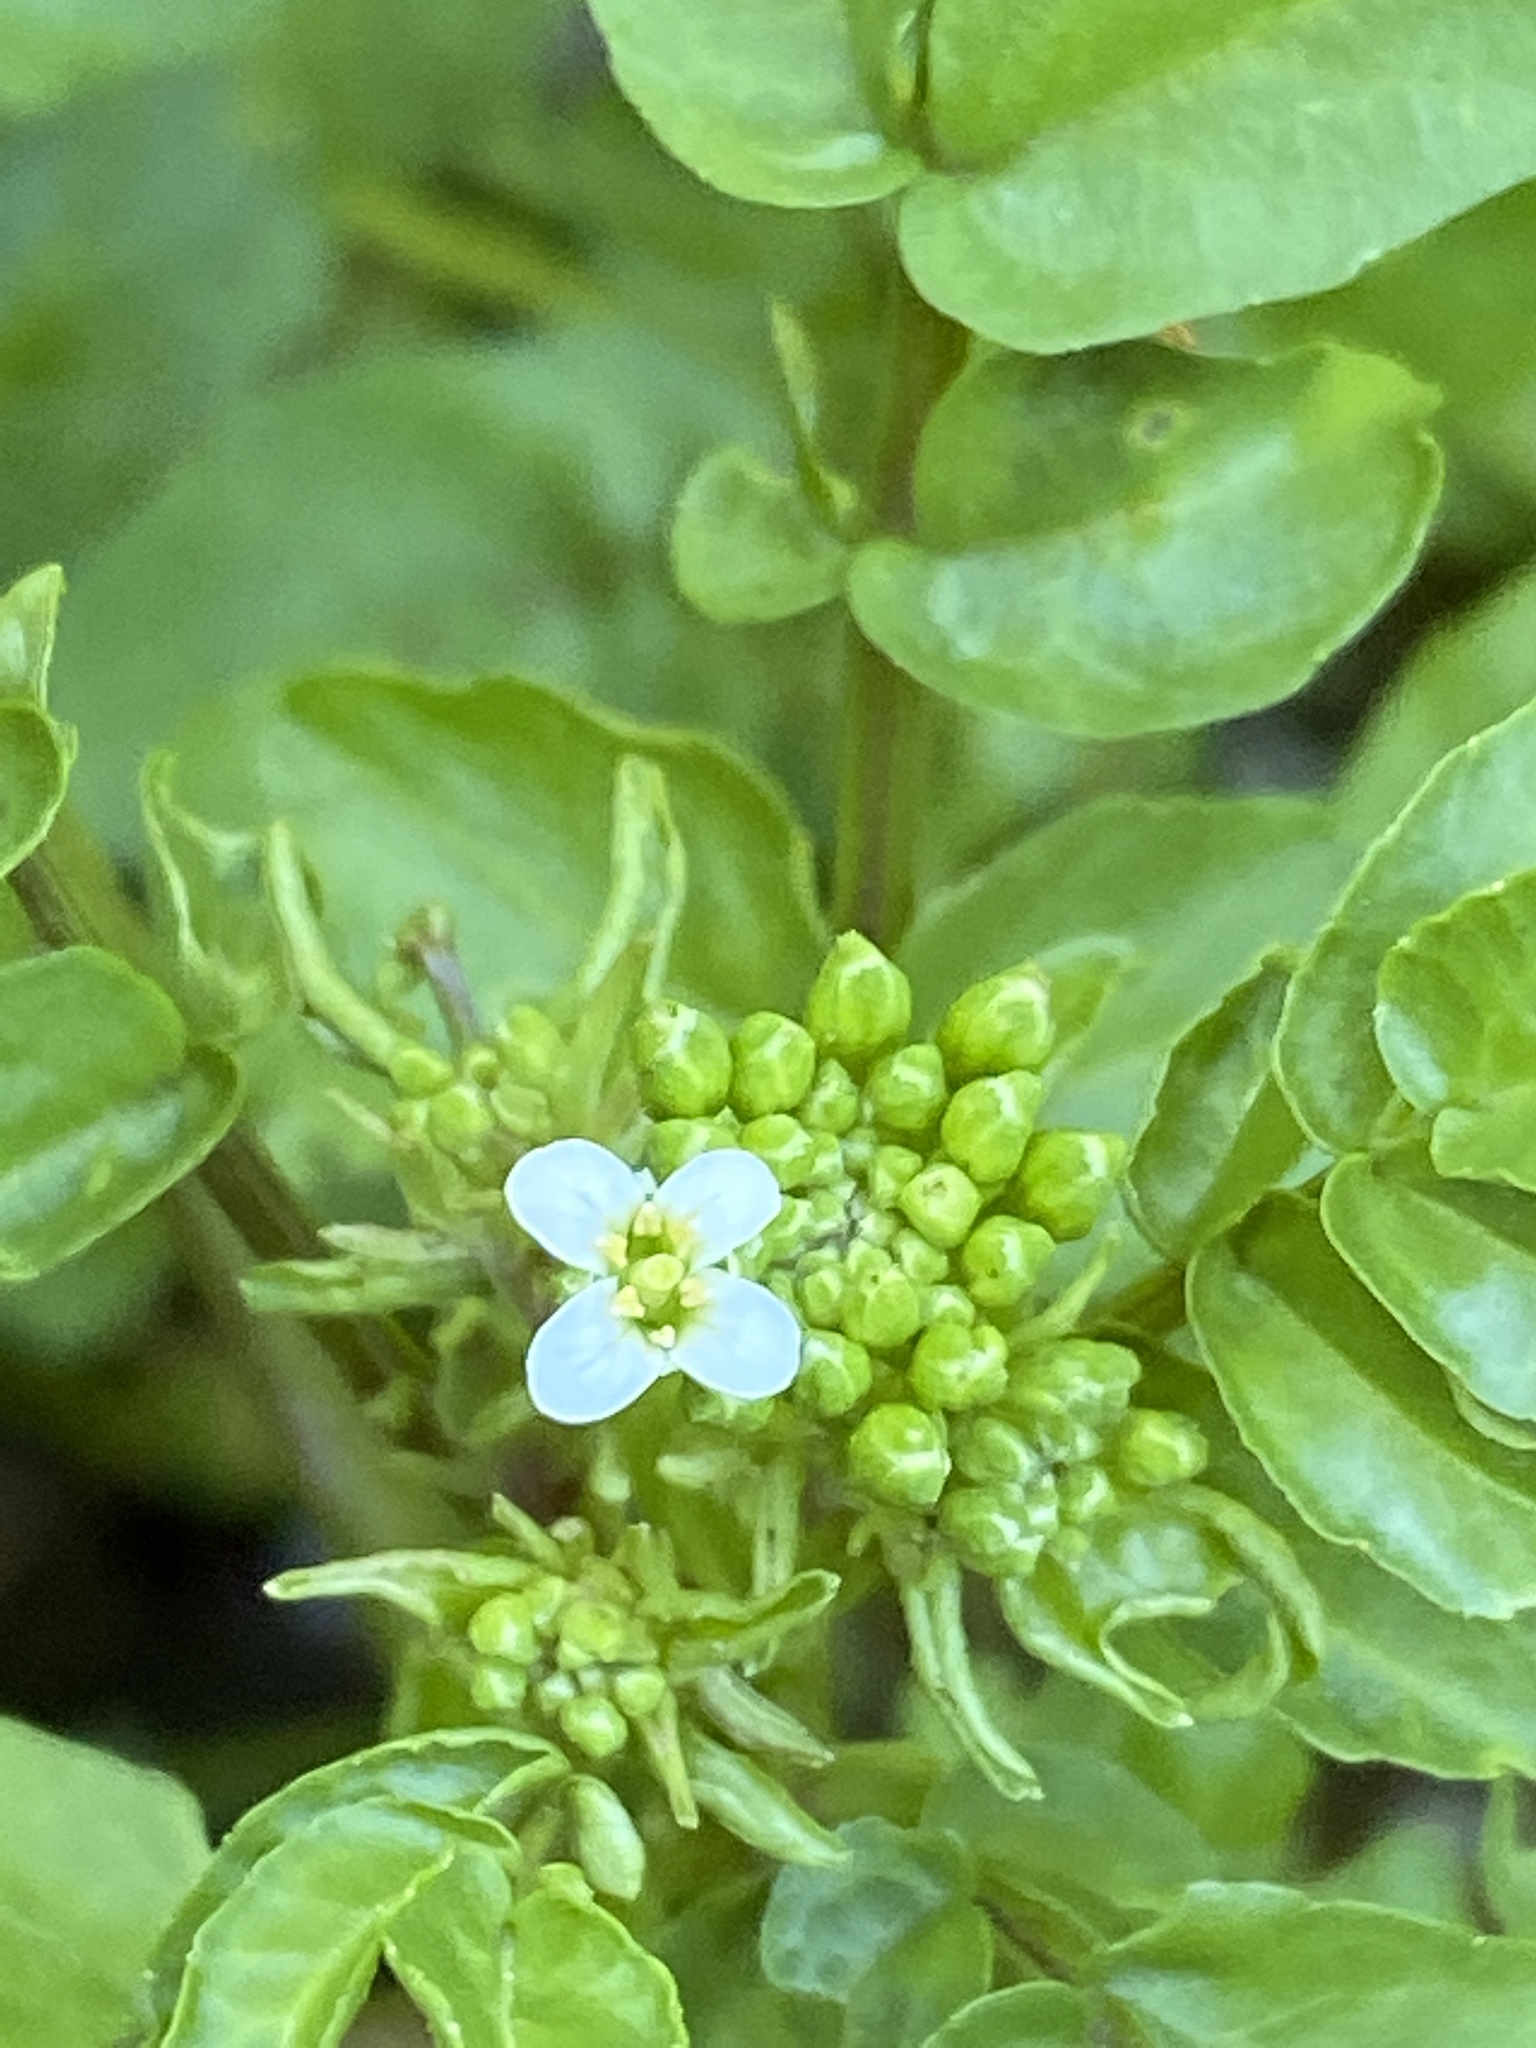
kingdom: Plantae
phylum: Tracheophyta
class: Magnoliopsida
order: Brassicales
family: Brassicaceae
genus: Nasturtium
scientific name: Nasturtium officinale
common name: Watercress
